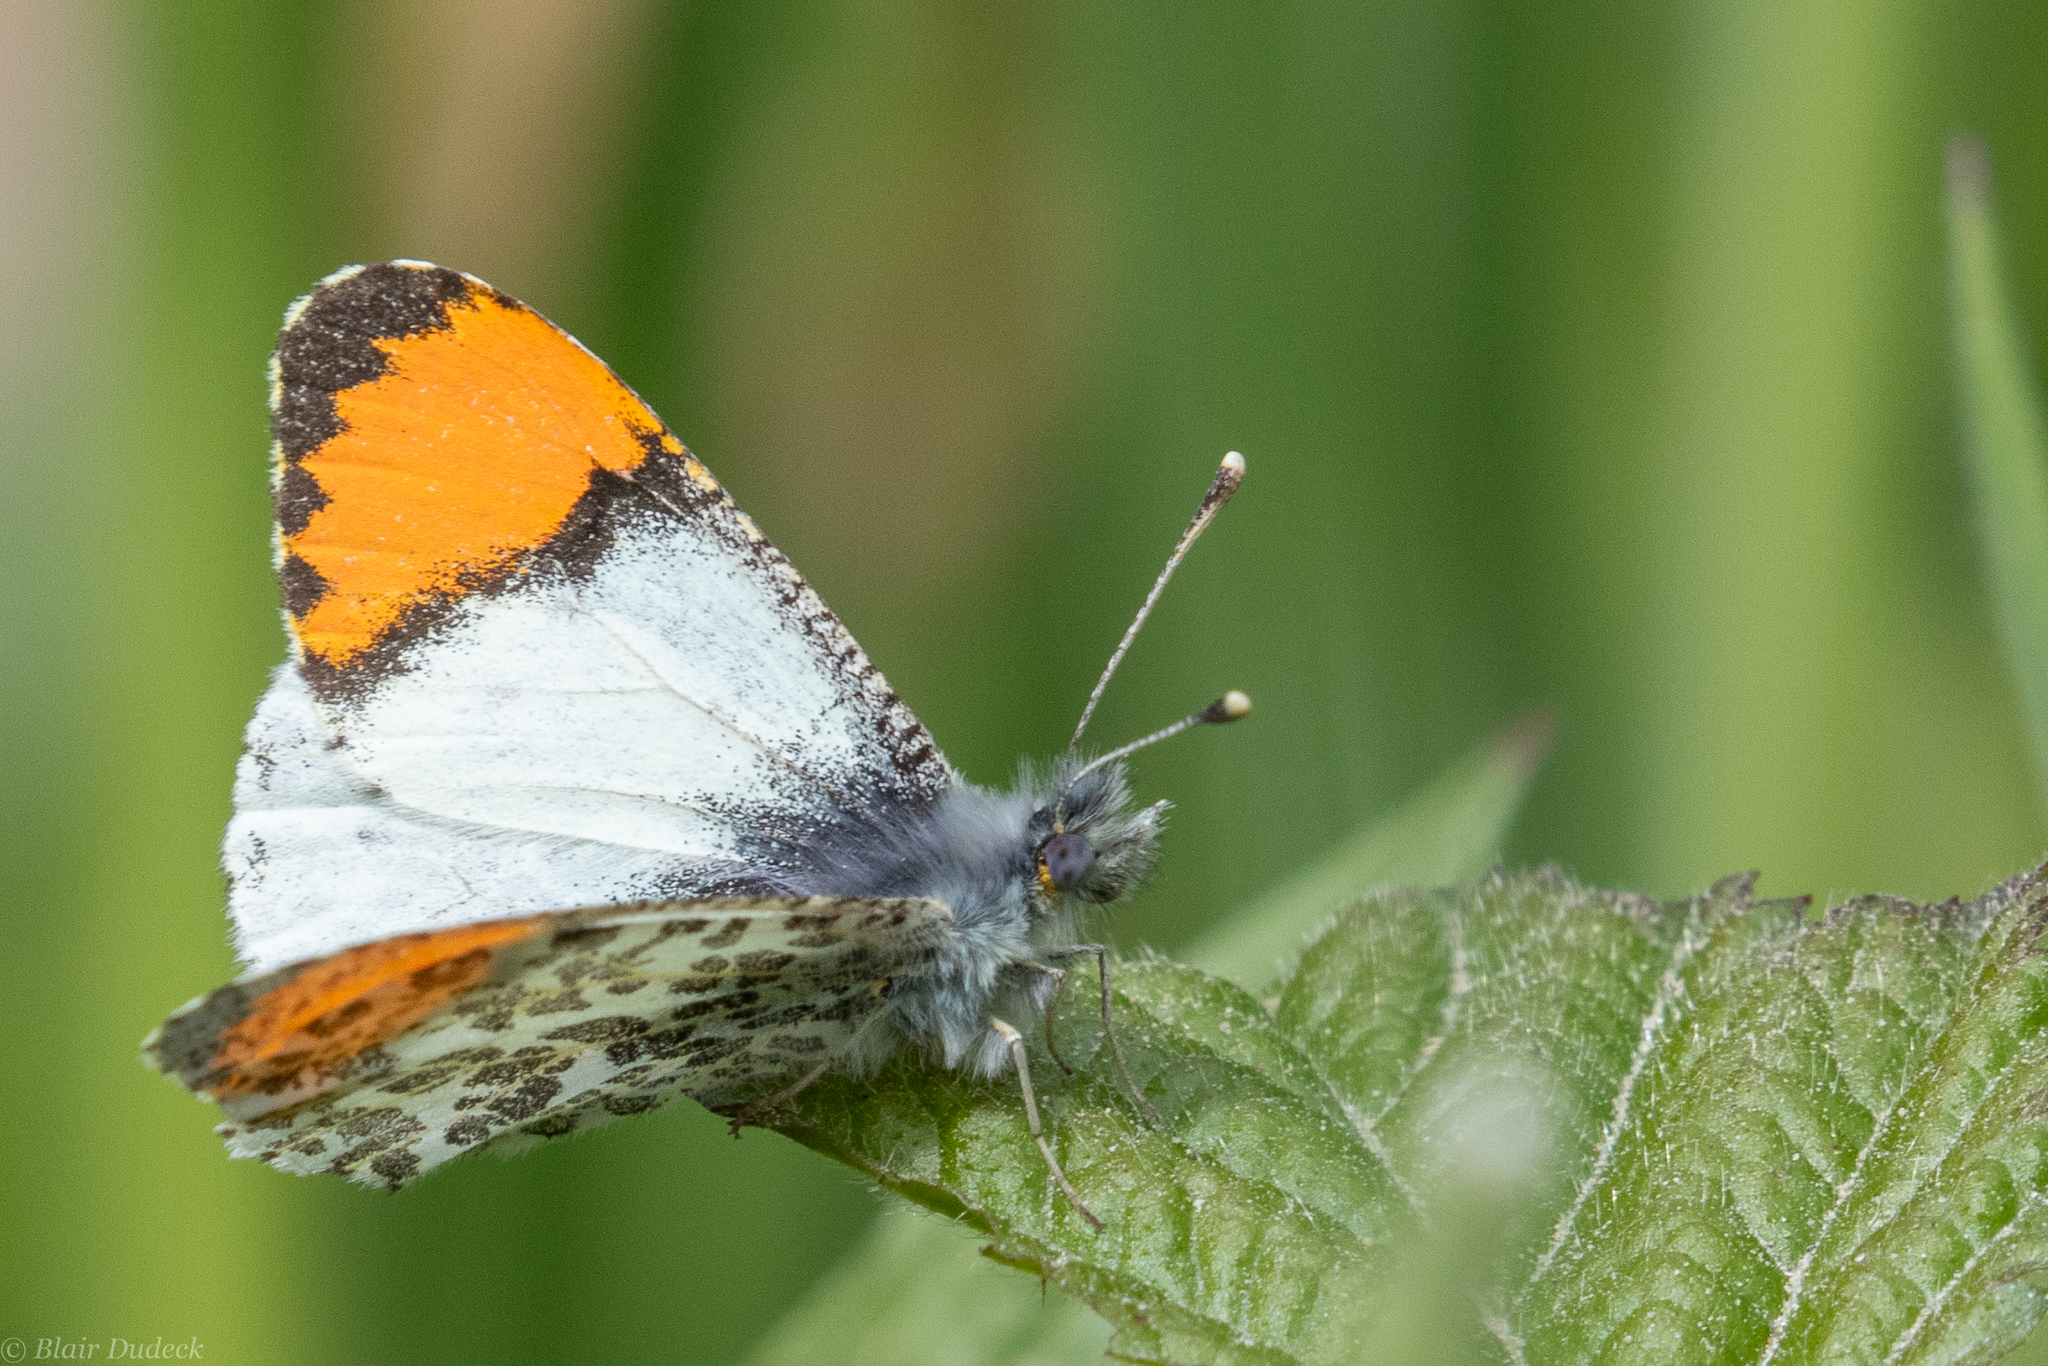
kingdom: Animalia
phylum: Arthropoda
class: Insecta
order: Lepidoptera
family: Pieridae
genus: Anthocharis
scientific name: Anthocharis julia
